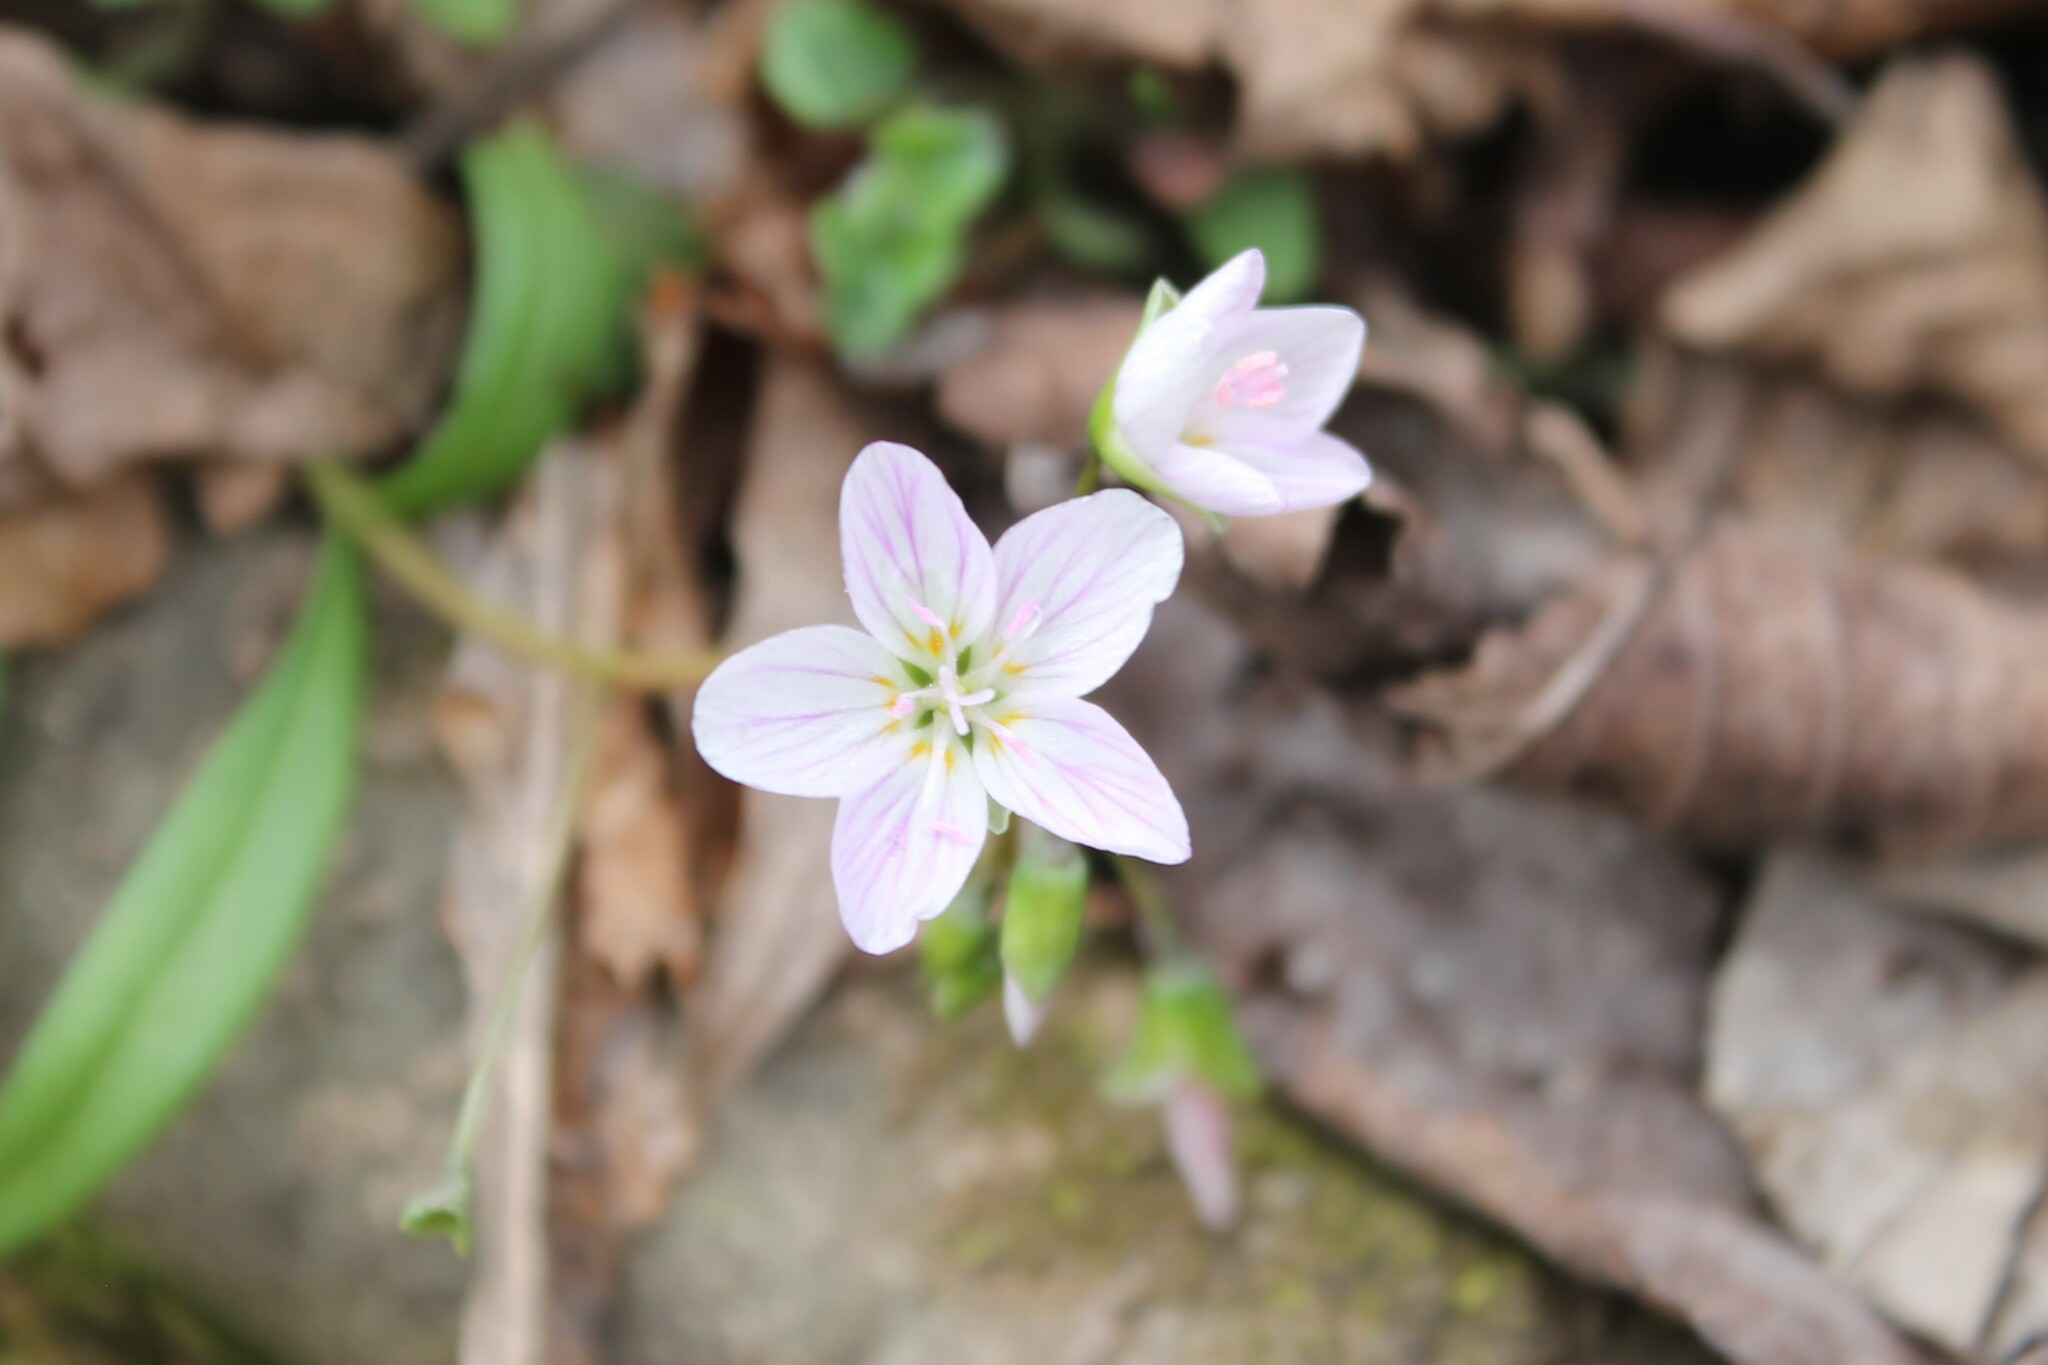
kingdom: Plantae
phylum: Tracheophyta
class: Magnoliopsida
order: Caryophyllales
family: Montiaceae
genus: Claytonia
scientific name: Claytonia virginica
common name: Virginia springbeauty
